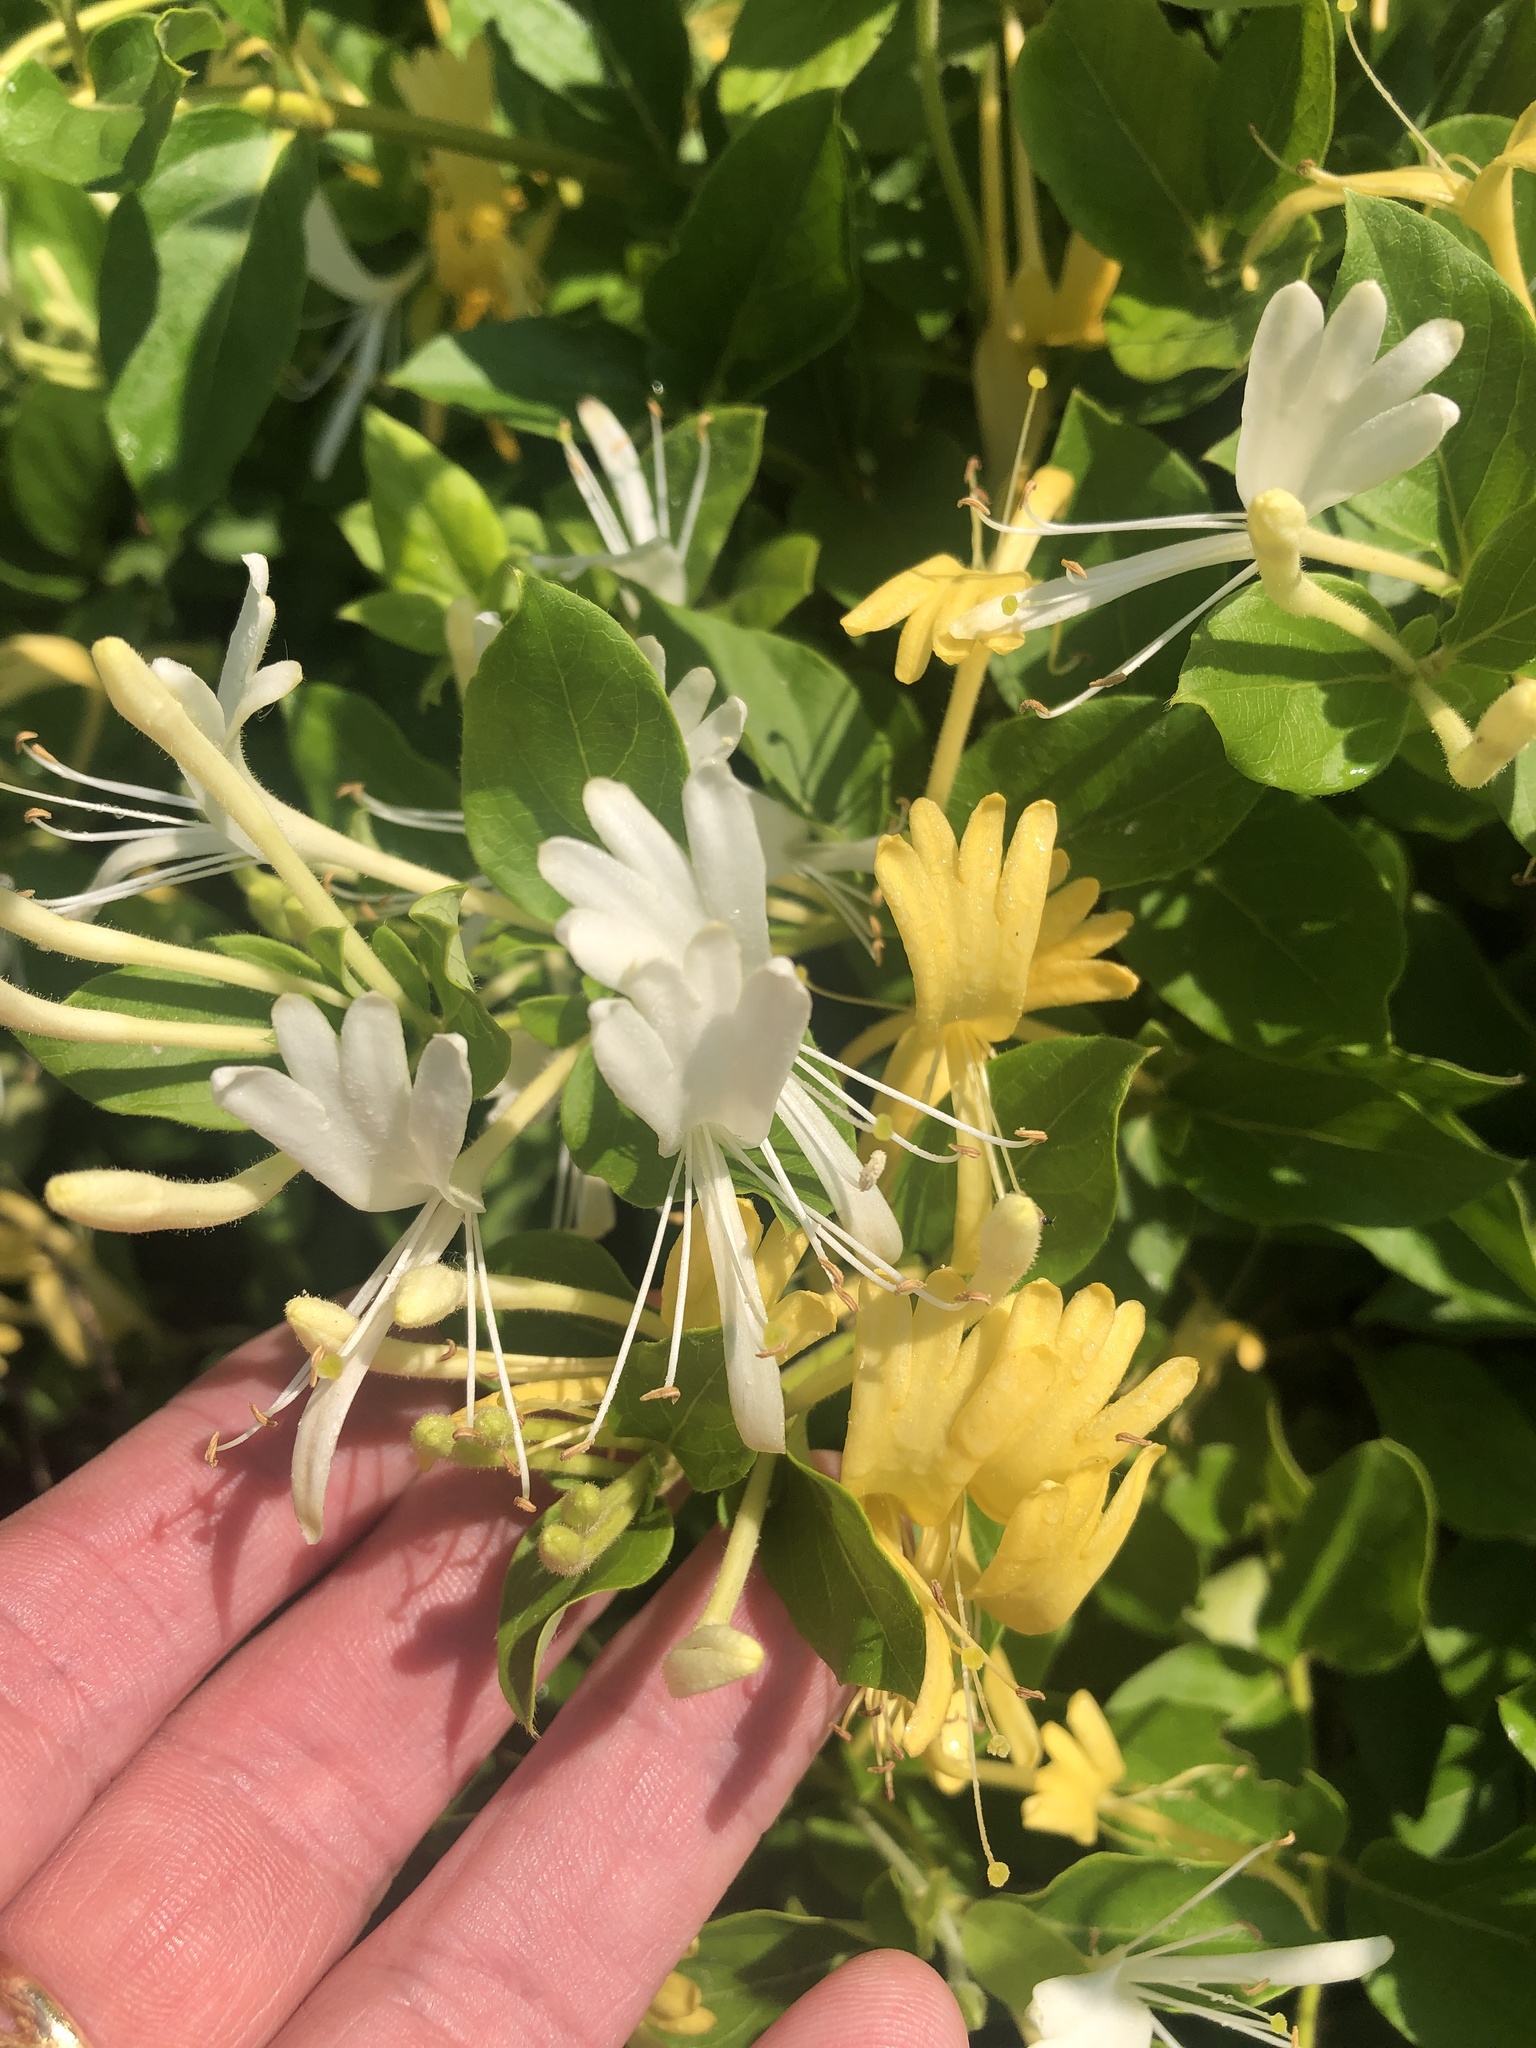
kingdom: Plantae
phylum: Tracheophyta
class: Magnoliopsida
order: Dipsacales
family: Caprifoliaceae
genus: Lonicera
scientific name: Lonicera japonica
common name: Japanese honeysuckle
